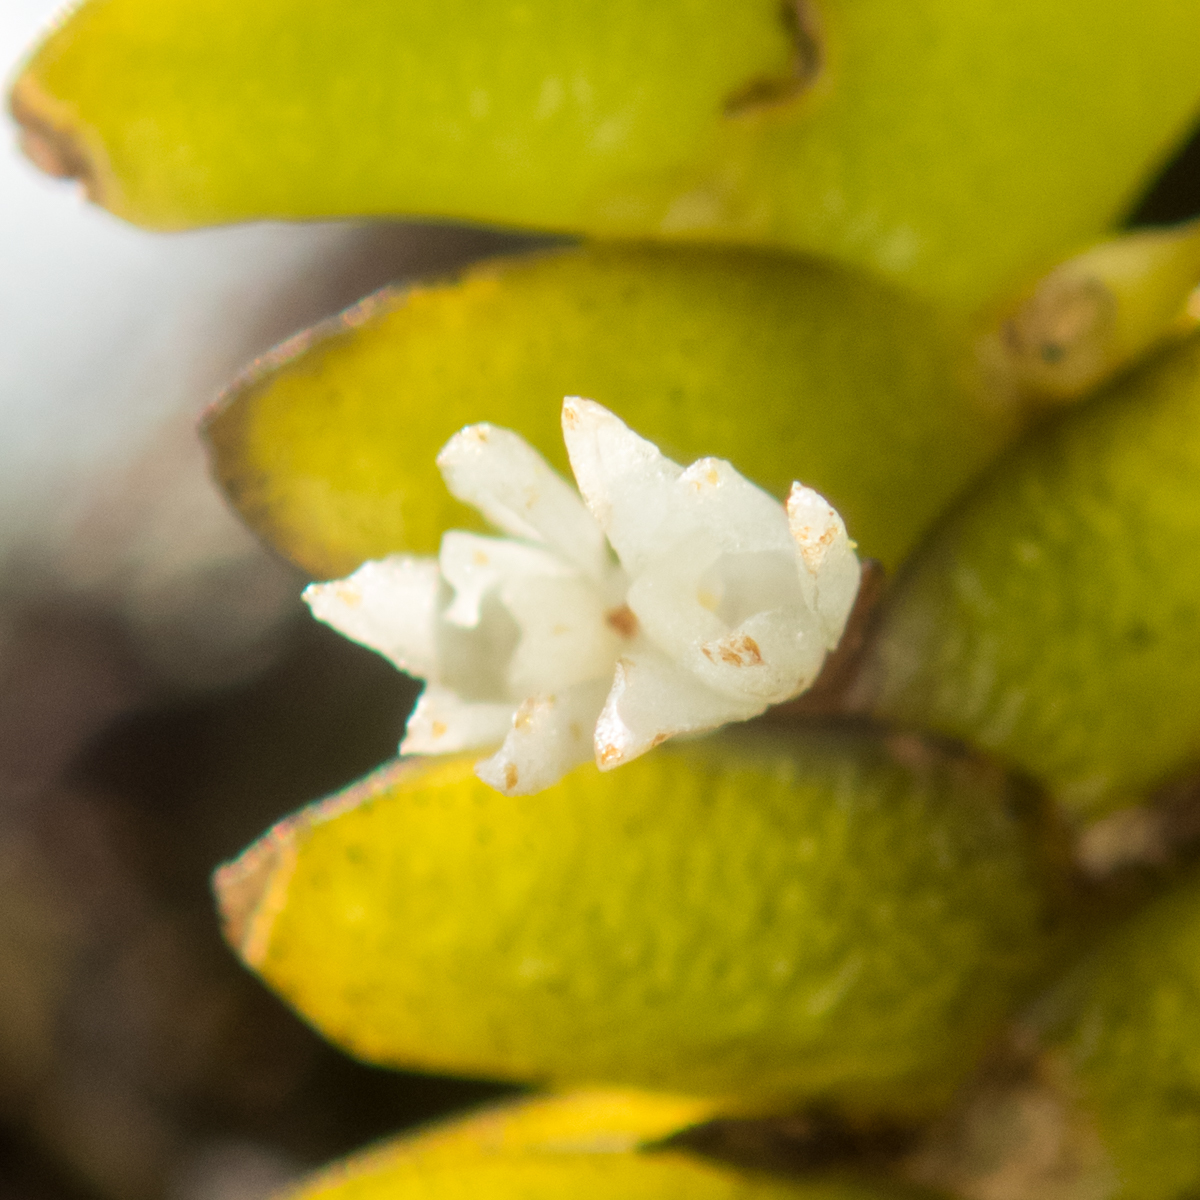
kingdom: Plantae
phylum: Tracheophyta
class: Liliopsida
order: Asparagales
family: Orchidaceae
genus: Microsaccus
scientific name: Microsaccus griffithii
